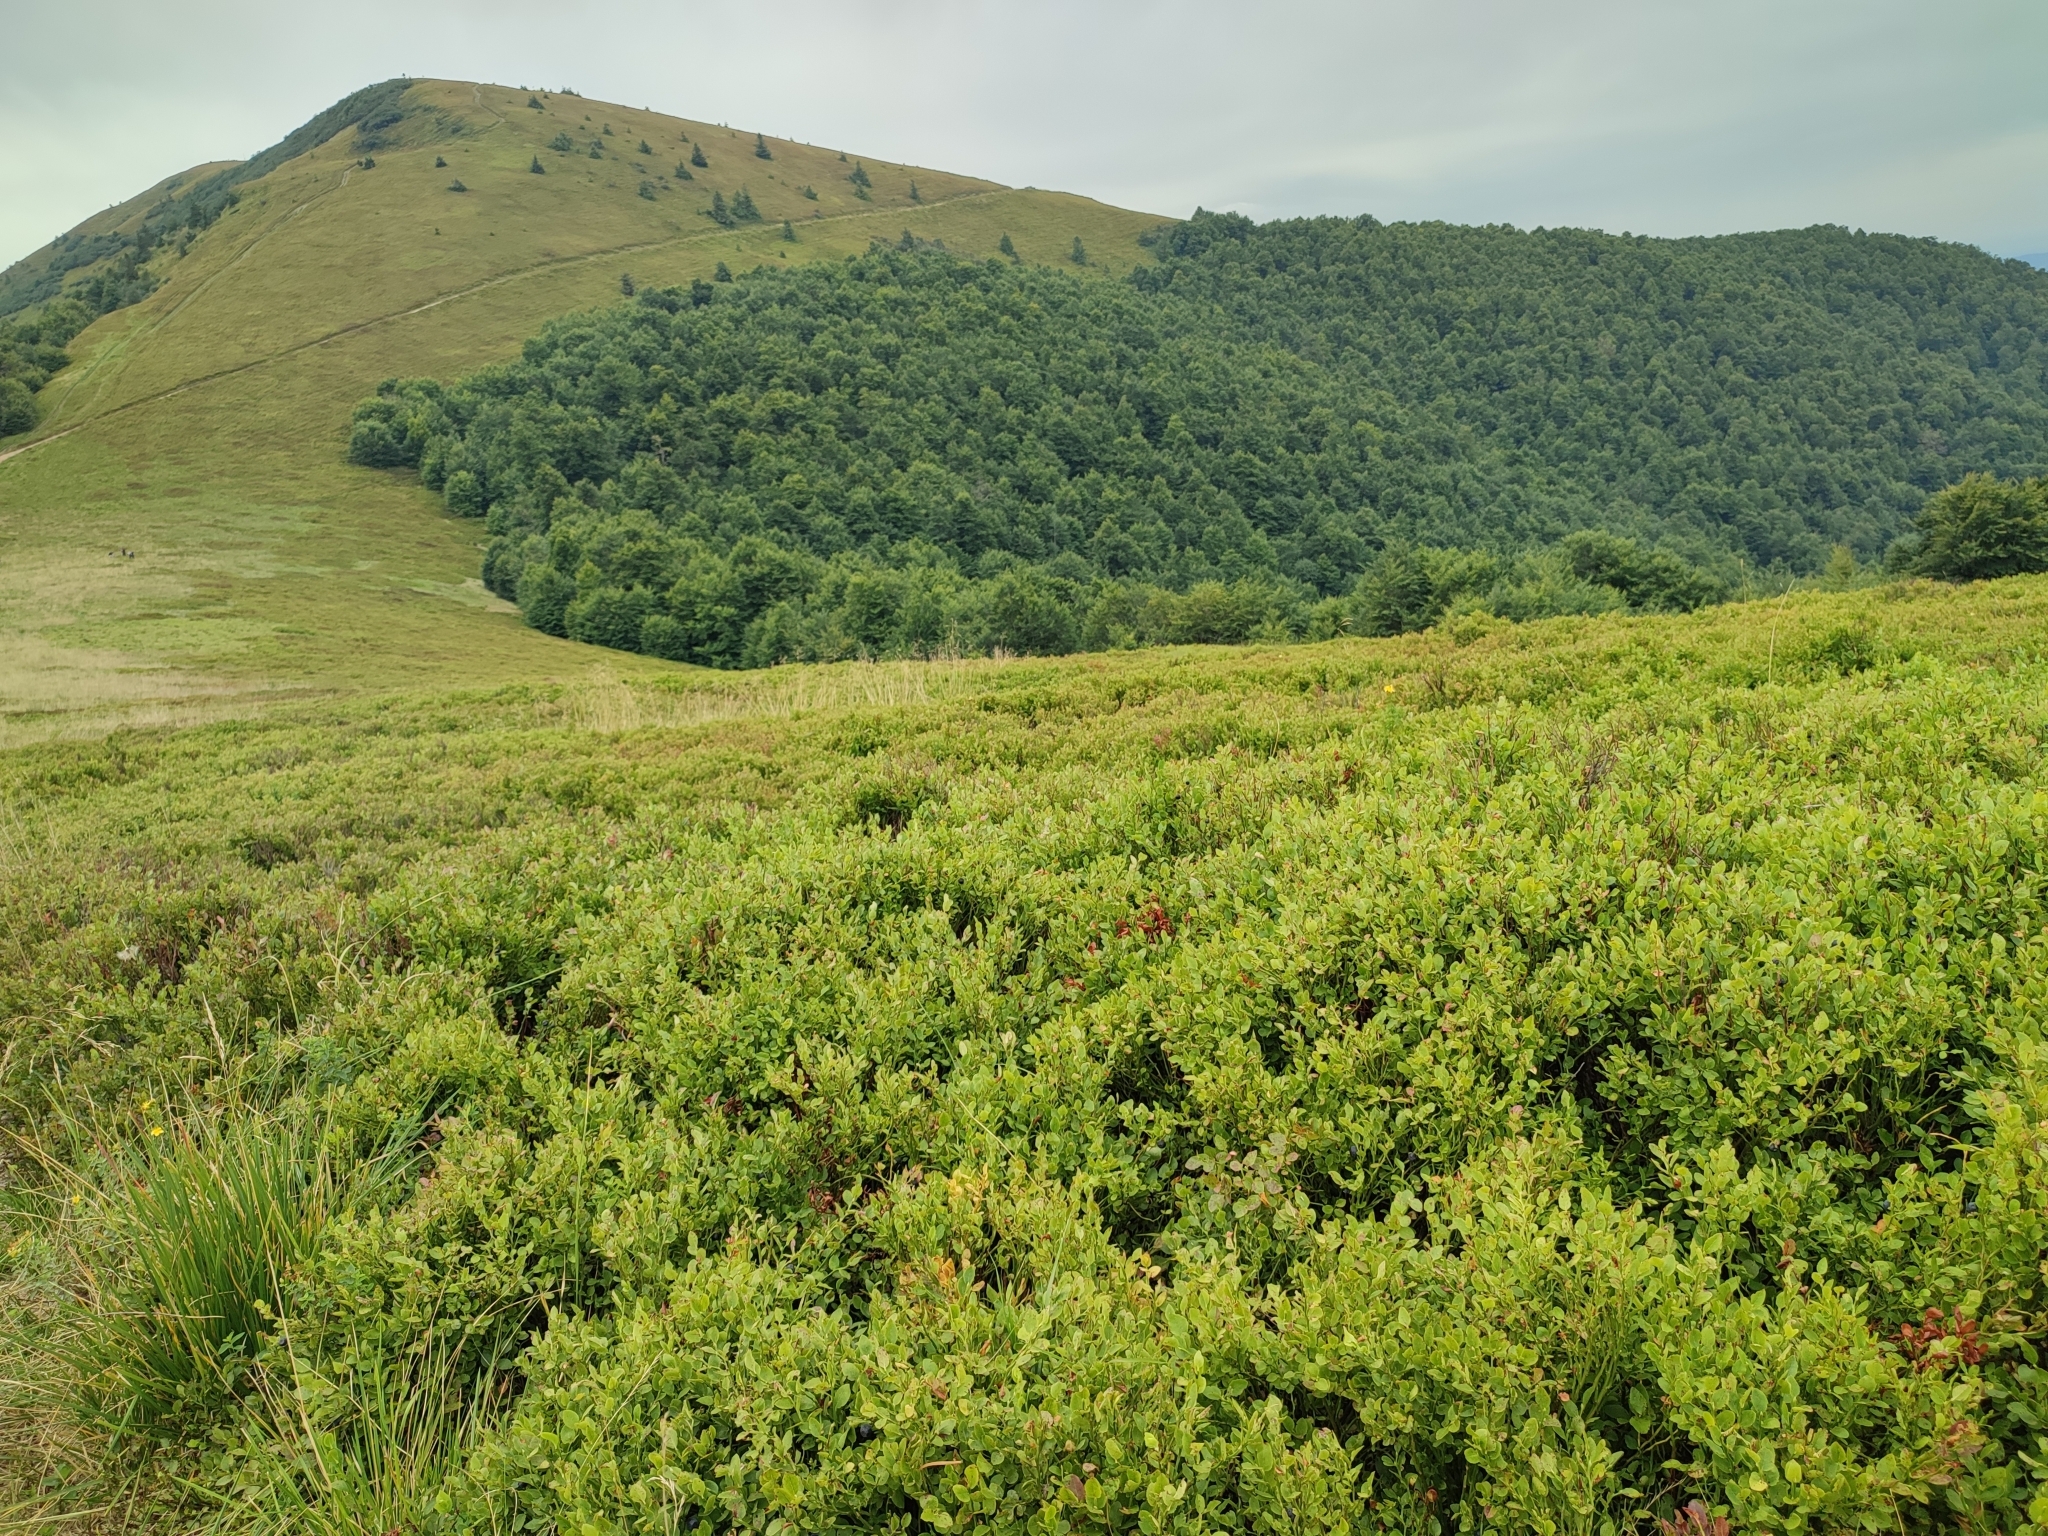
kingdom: Plantae
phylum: Tracheophyta
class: Magnoliopsida
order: Ericales
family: Ericaceae
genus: Vaccinium
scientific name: Vaccinium myrtillus
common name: Bilberry
